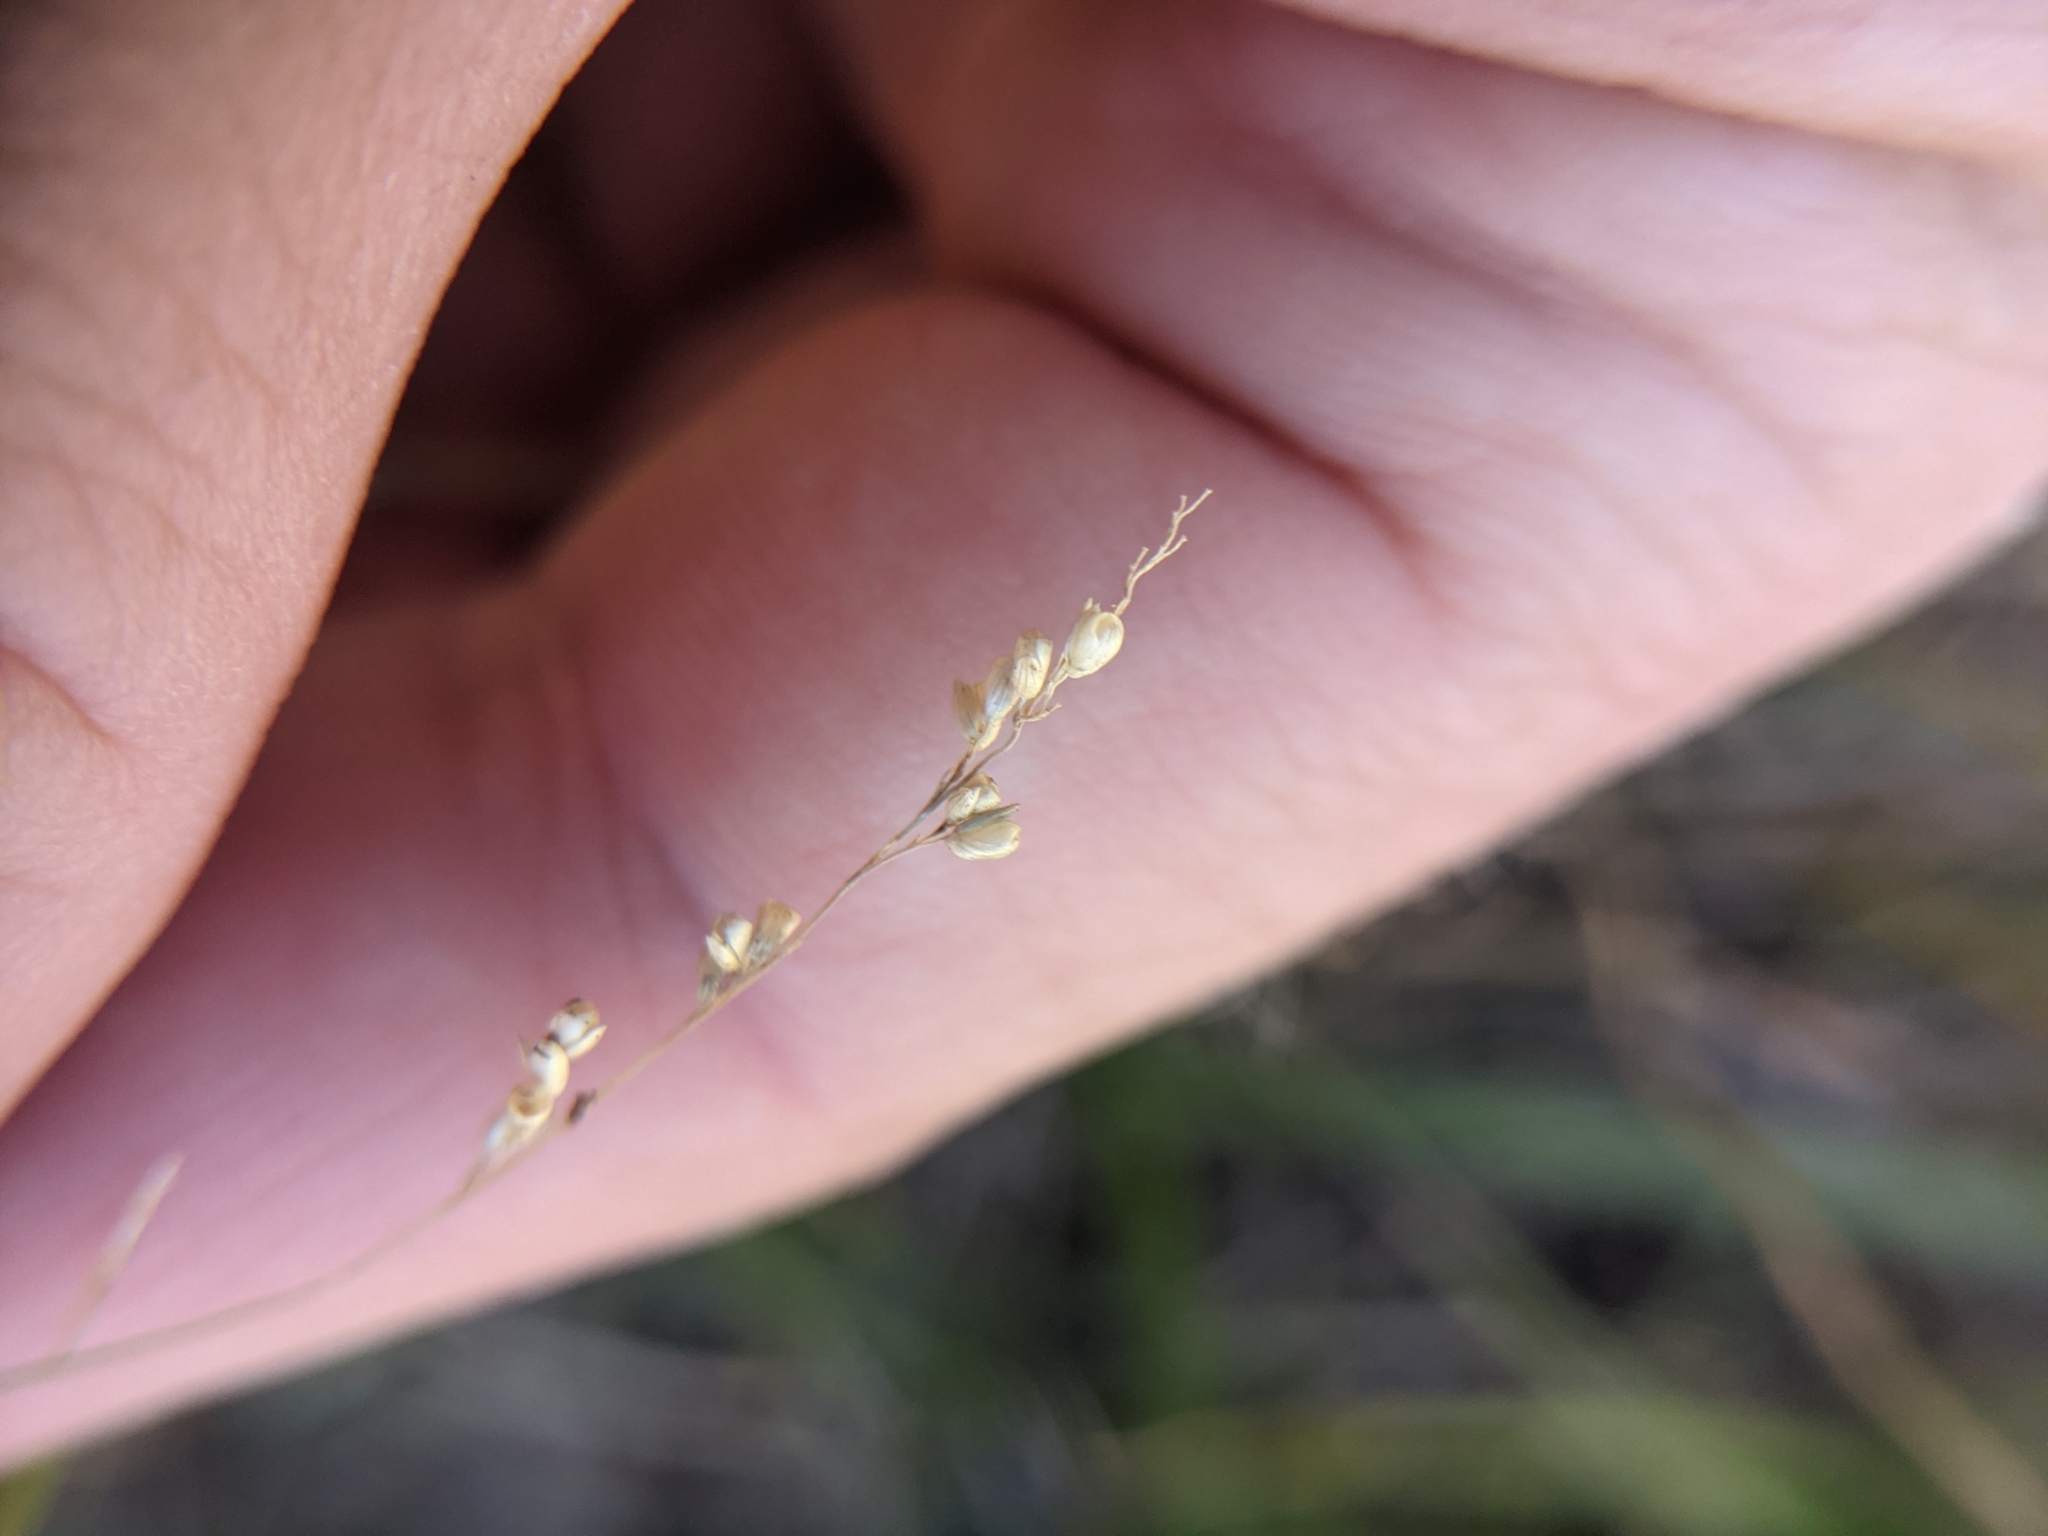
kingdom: Plantae
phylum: Tracheophyta
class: Liliopsida
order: Poales
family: Poaceae
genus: Steinchisma
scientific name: Steinchisma hians
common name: Gaping panic grass
